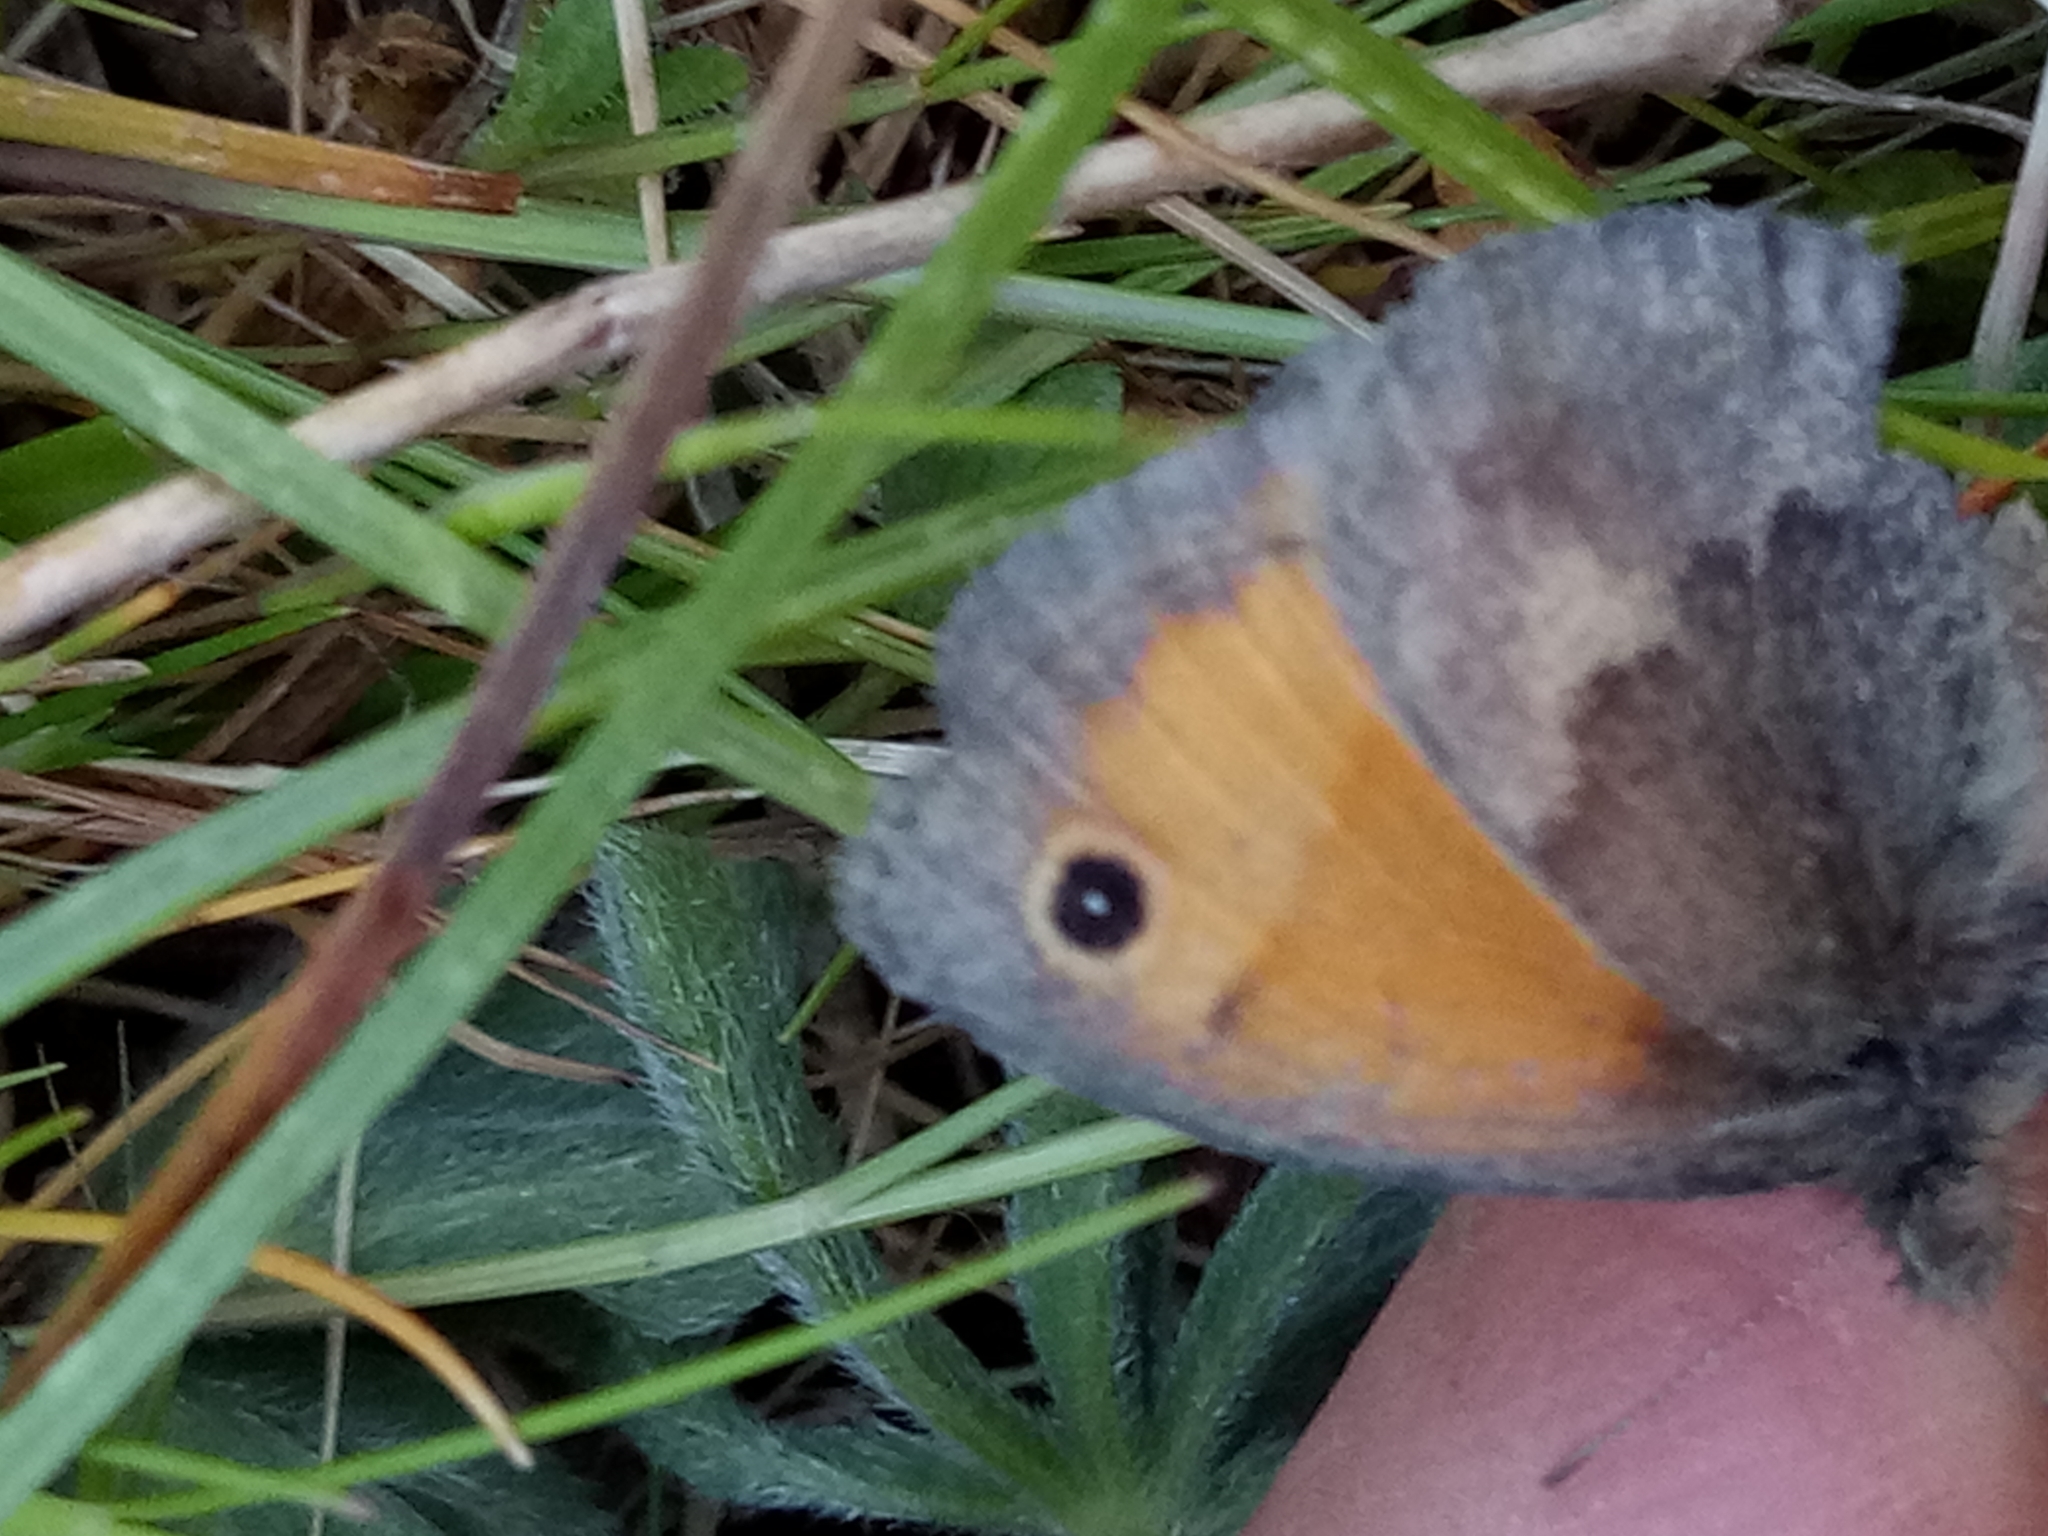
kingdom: Animalia
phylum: Arthropoda
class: Insecta
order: Lepidoptera
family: Nymphalidae
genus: Coenonympha
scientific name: Coenonympha pamphilus
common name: Small heath
